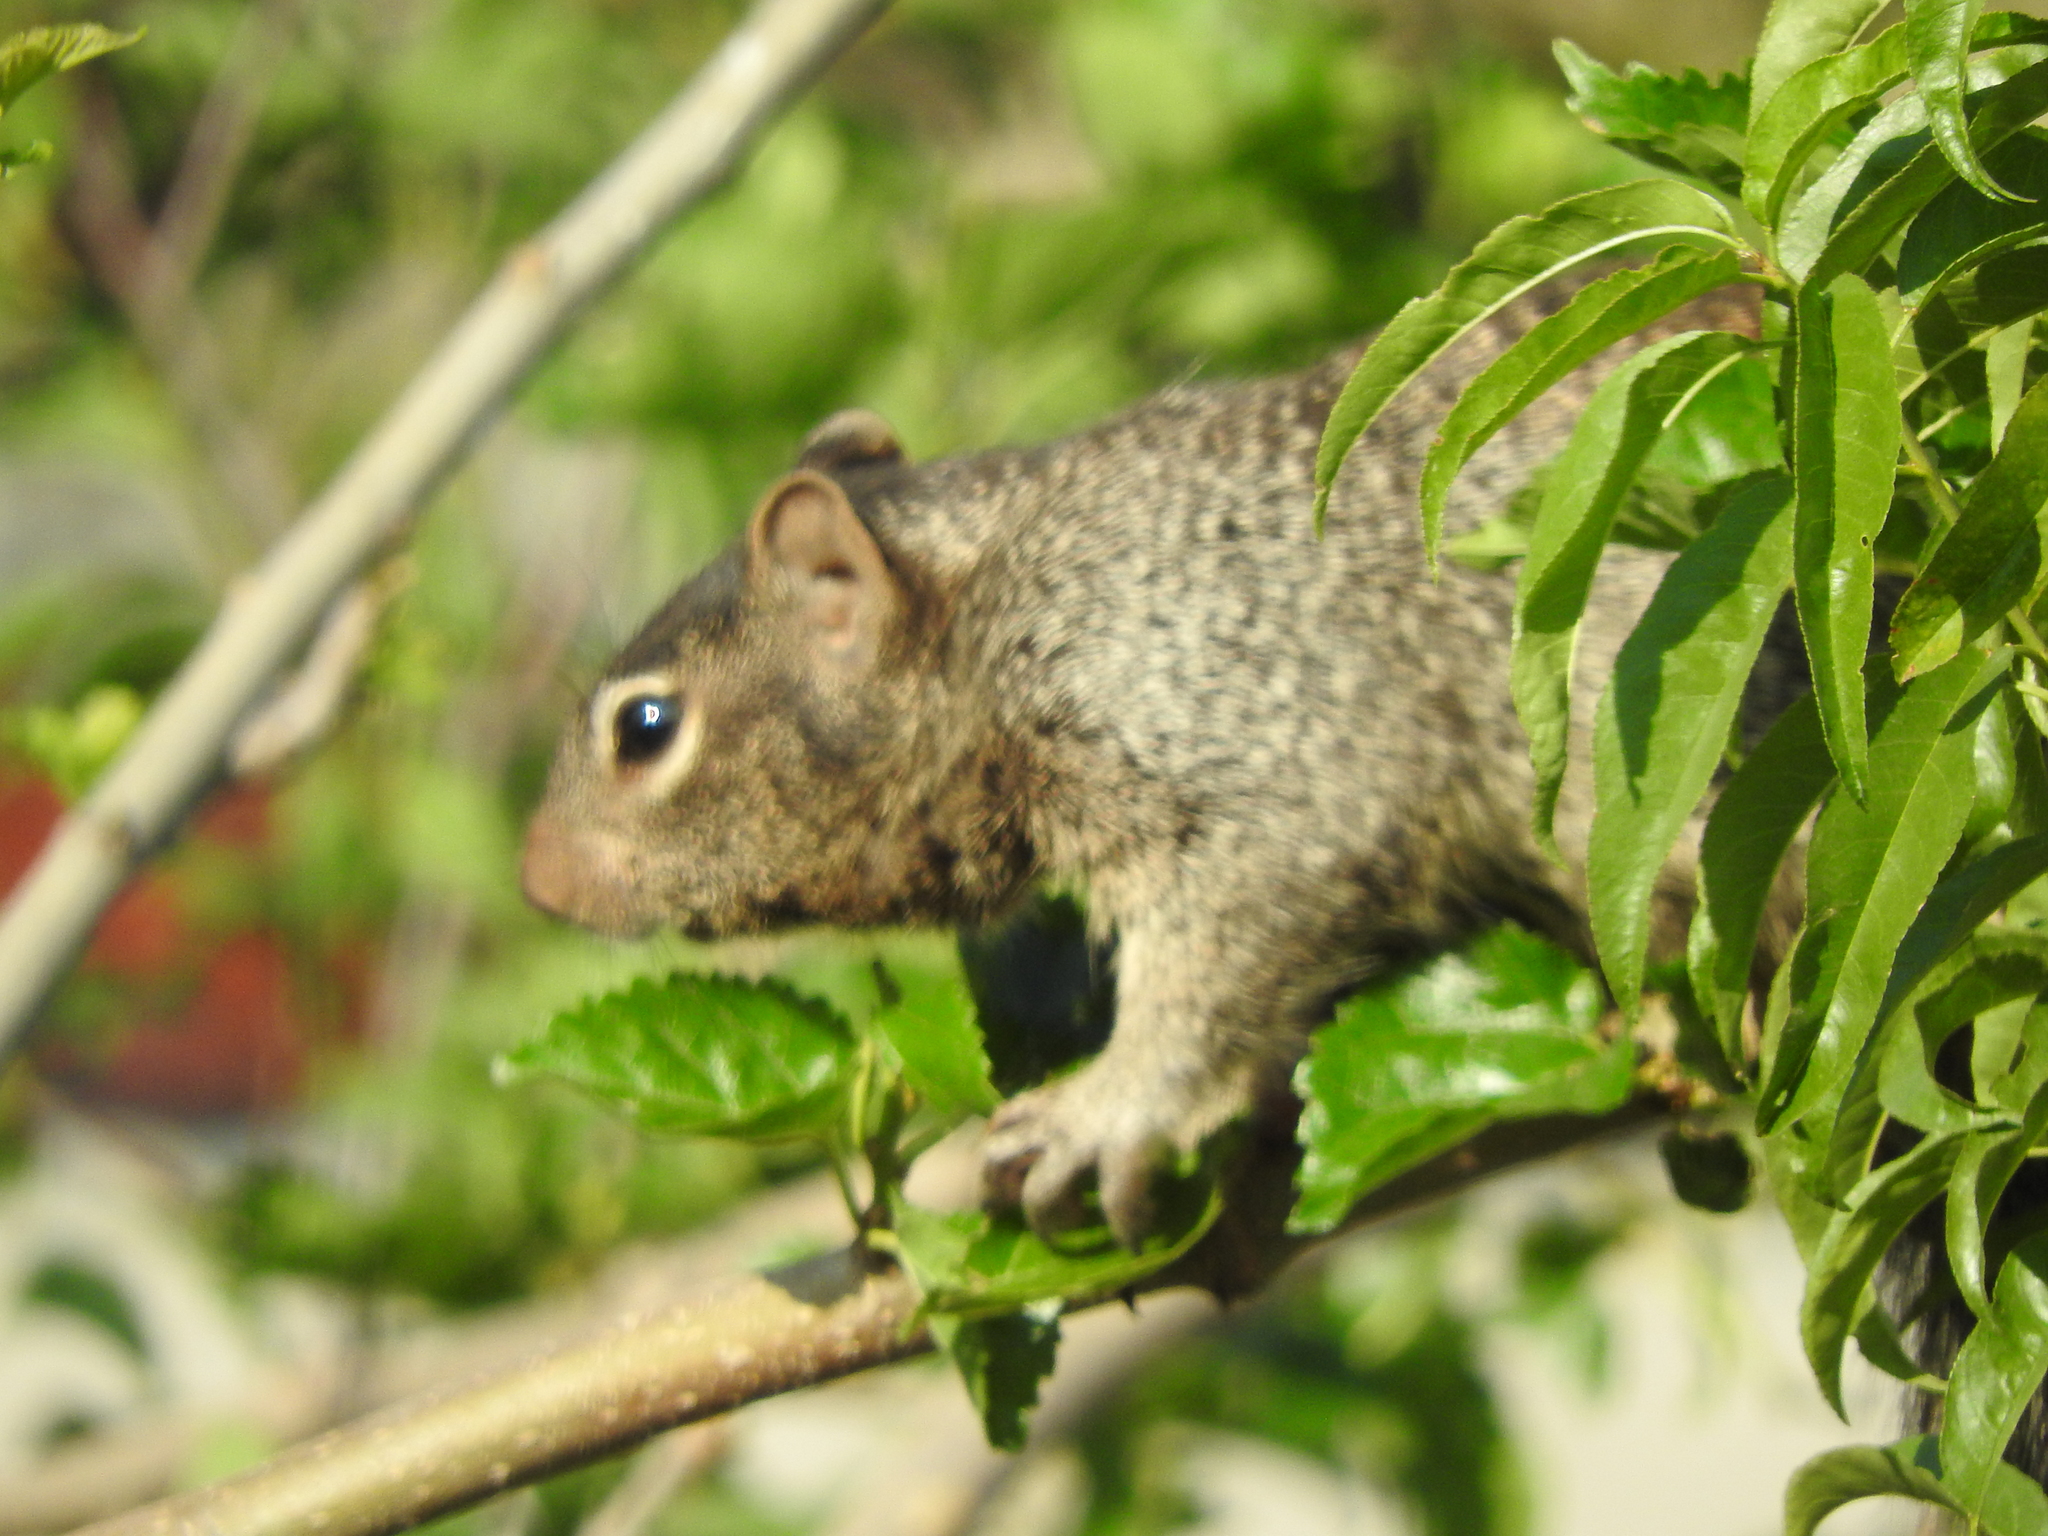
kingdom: Animalia
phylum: Chordata
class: Mammalia
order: Rodentia
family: Sciuridae
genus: Otospermophilus
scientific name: Otospermophilus variegatus
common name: Rock squirrel
